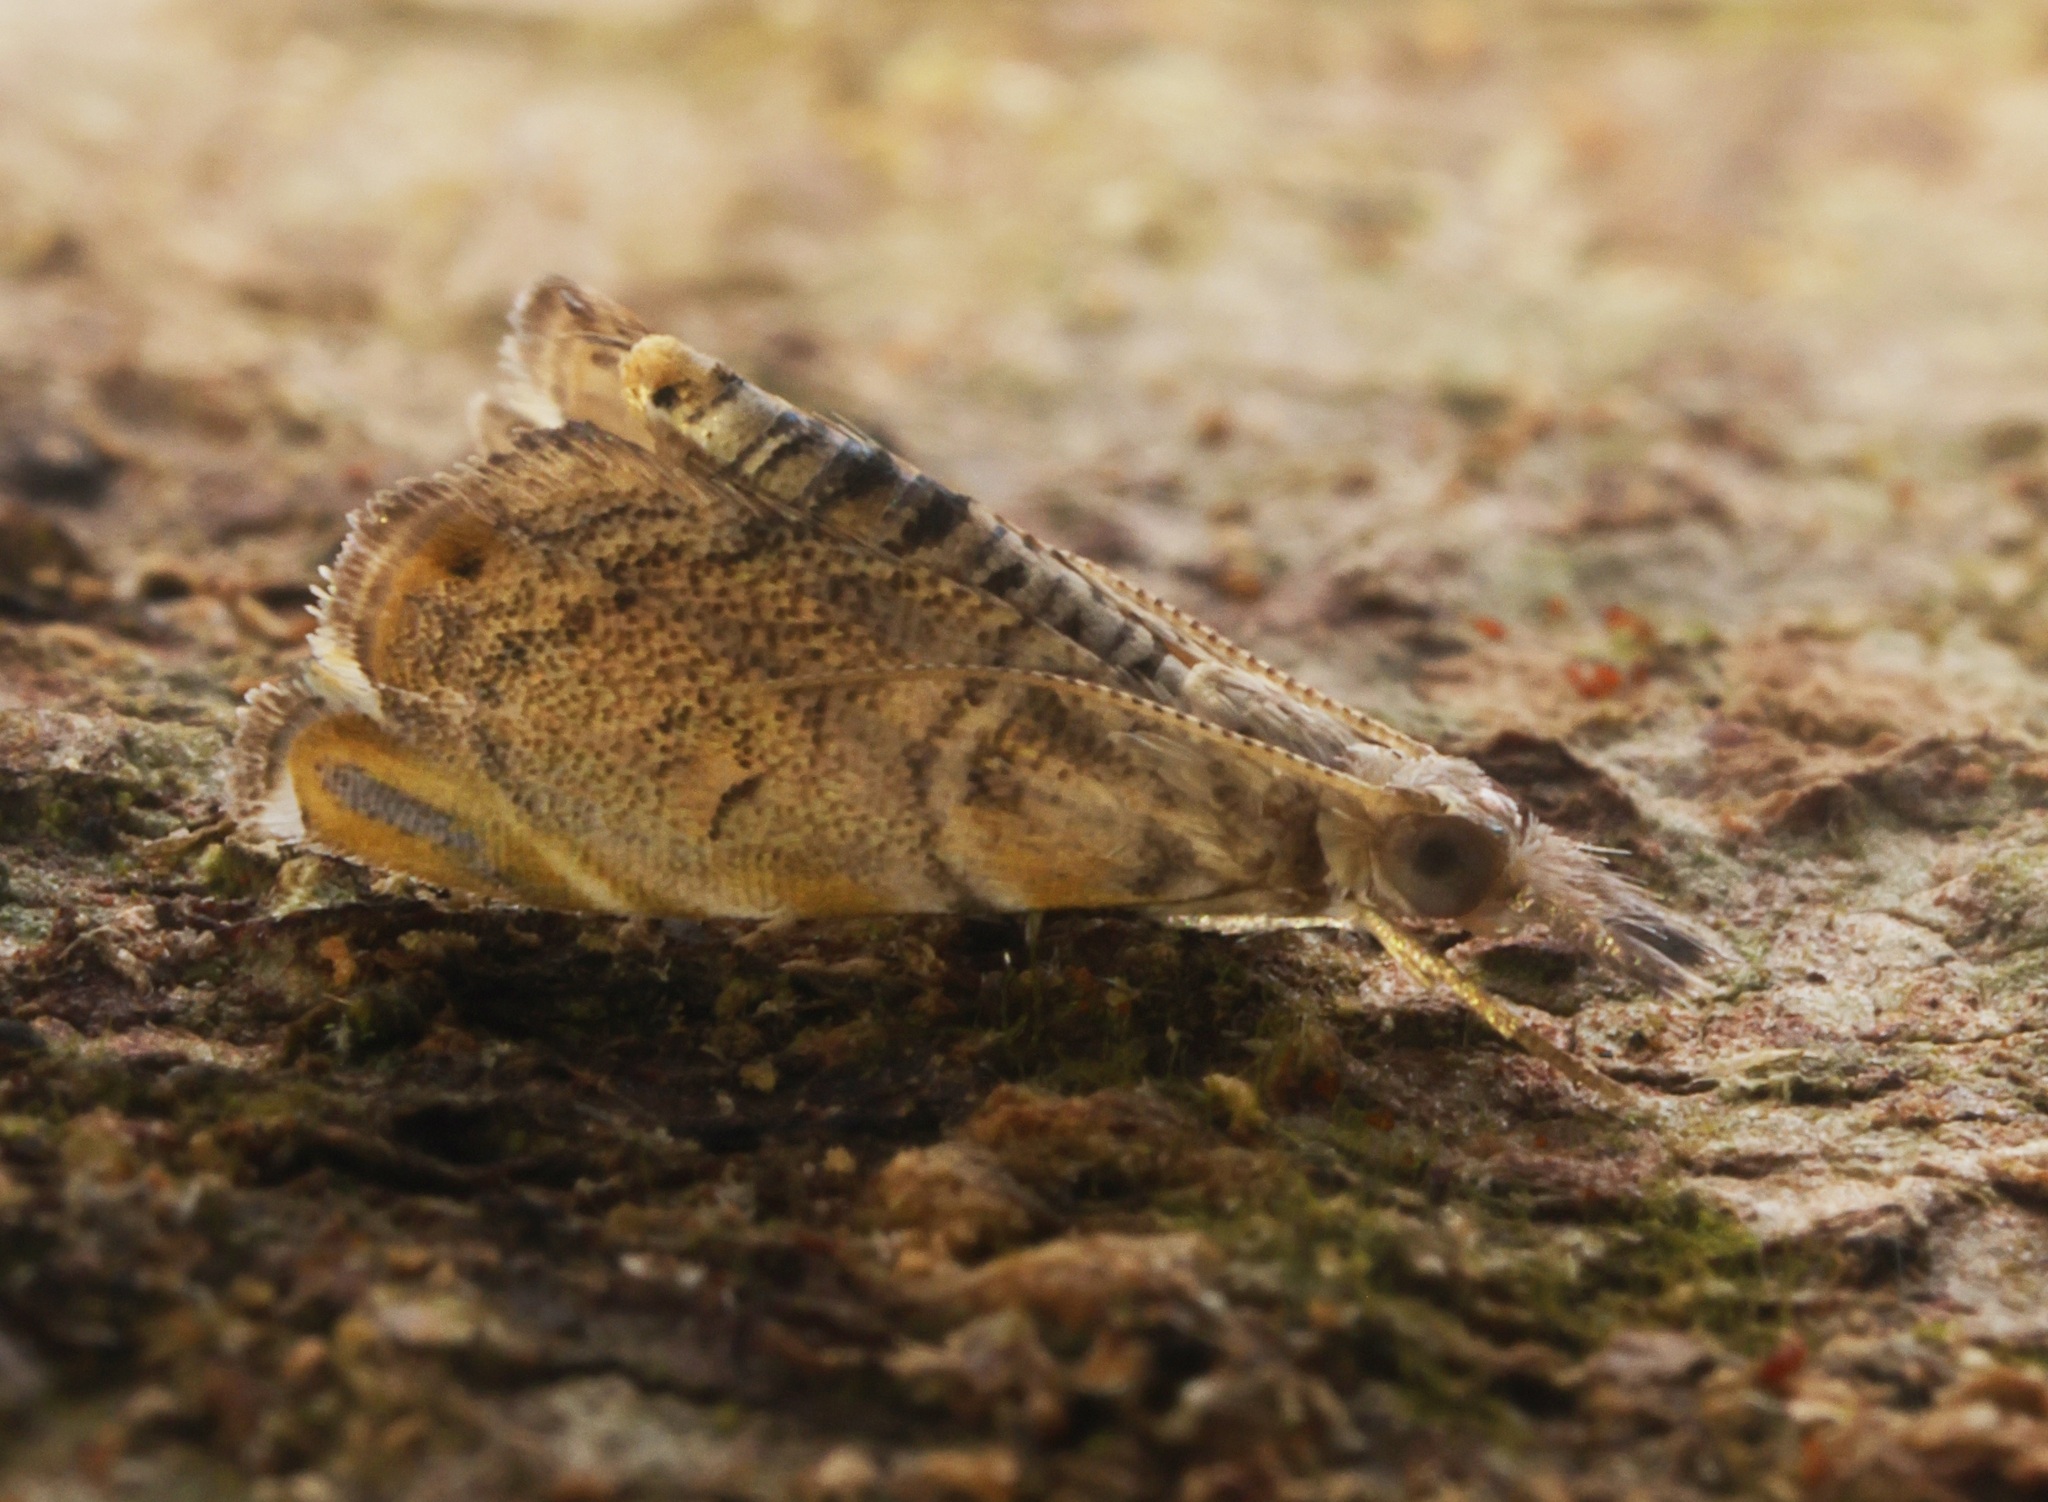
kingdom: Animalia
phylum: Arthropoda
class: Insecta
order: Lepidoptera
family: Crambidae
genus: Glaucocharis
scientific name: Glaucocharis siciformis
